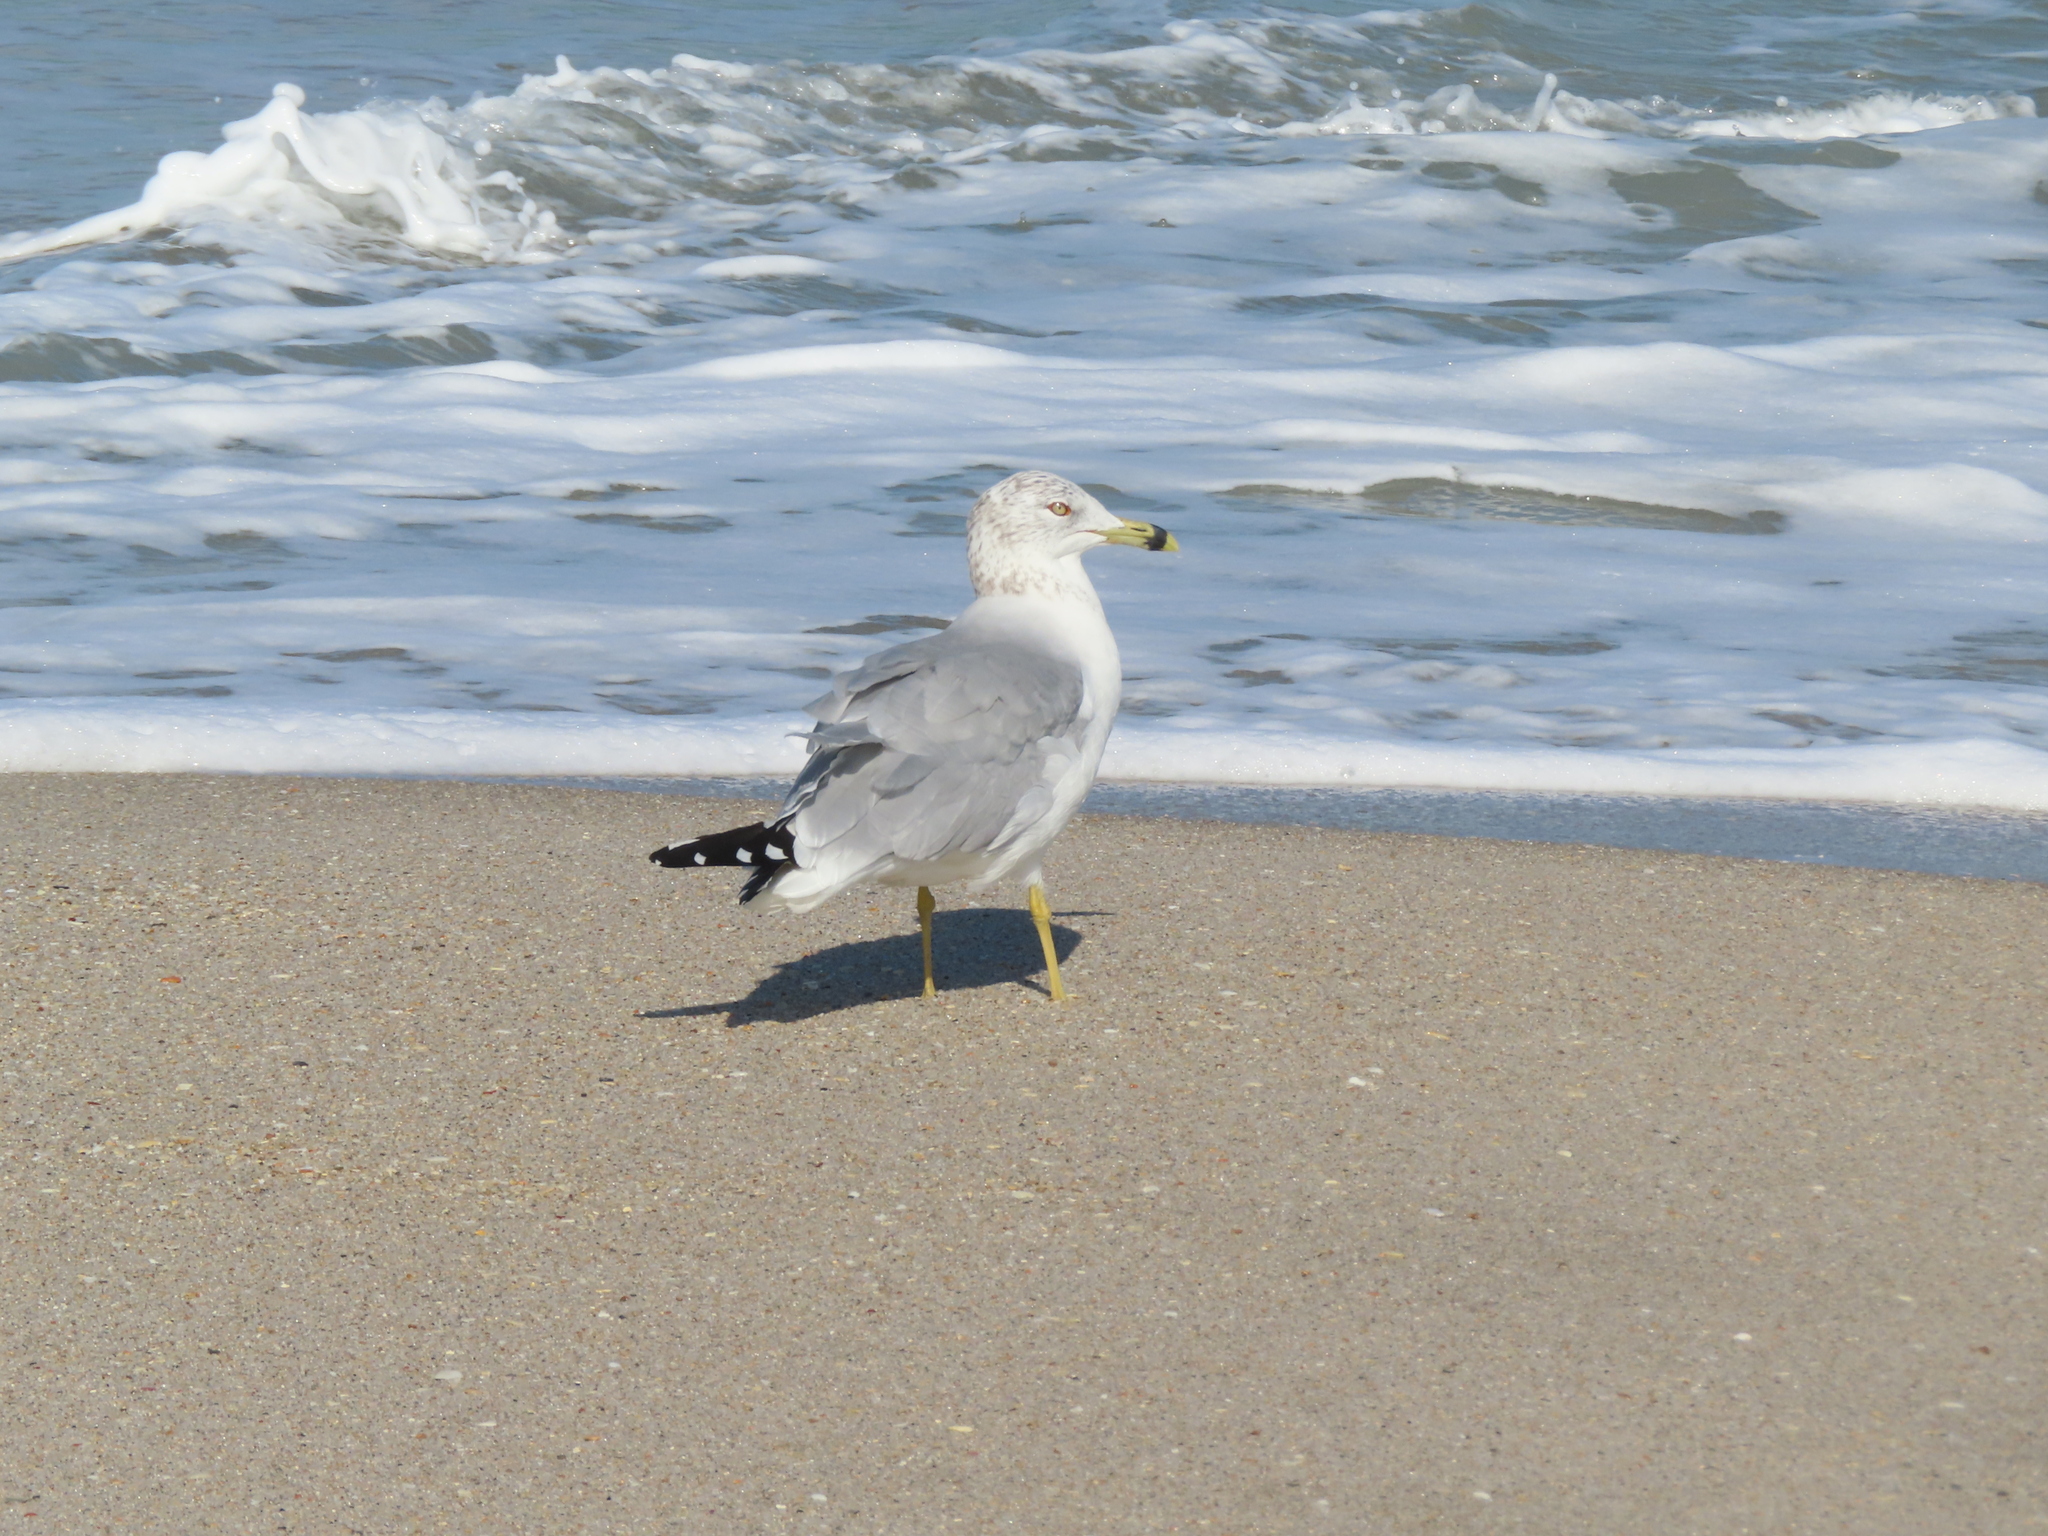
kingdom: Animalia
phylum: Chordata
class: Aves
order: Charadriiformes
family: Laridae
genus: Larus
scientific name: Larus delawarensis
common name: Ring-billed gull
